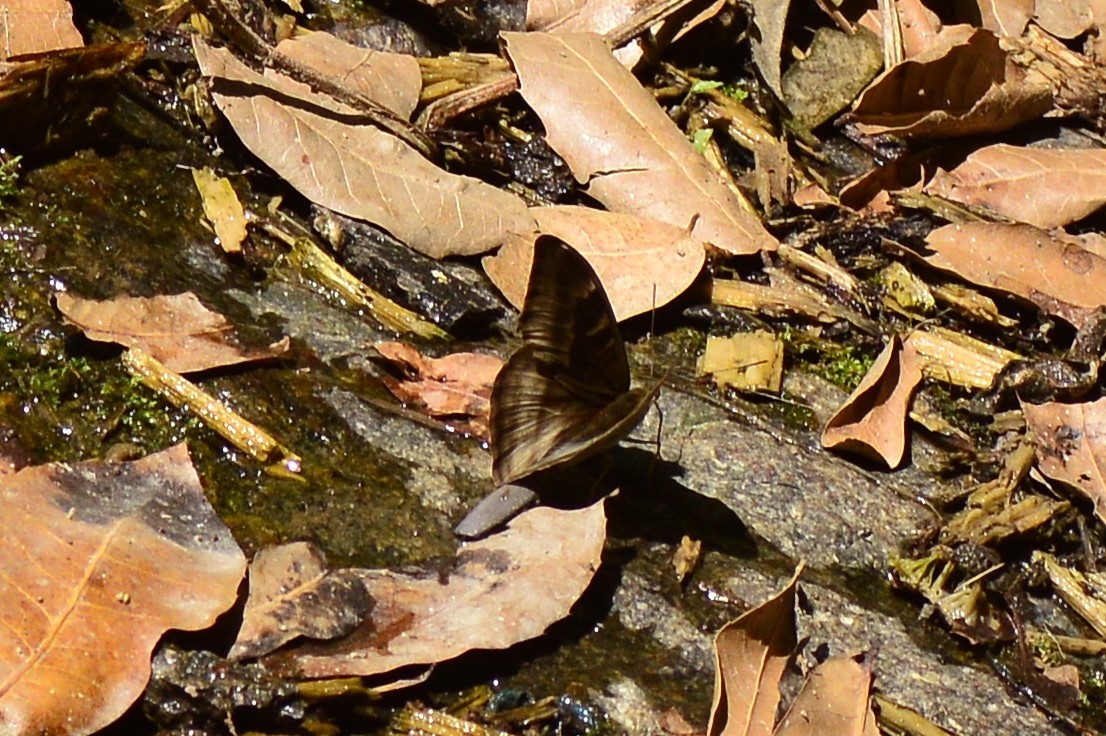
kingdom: Animalia
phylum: Arthropoda
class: Insecta
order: Lepidoptera
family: Nymphalidae
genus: Limenitis
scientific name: Limenitis Auzakia danava
